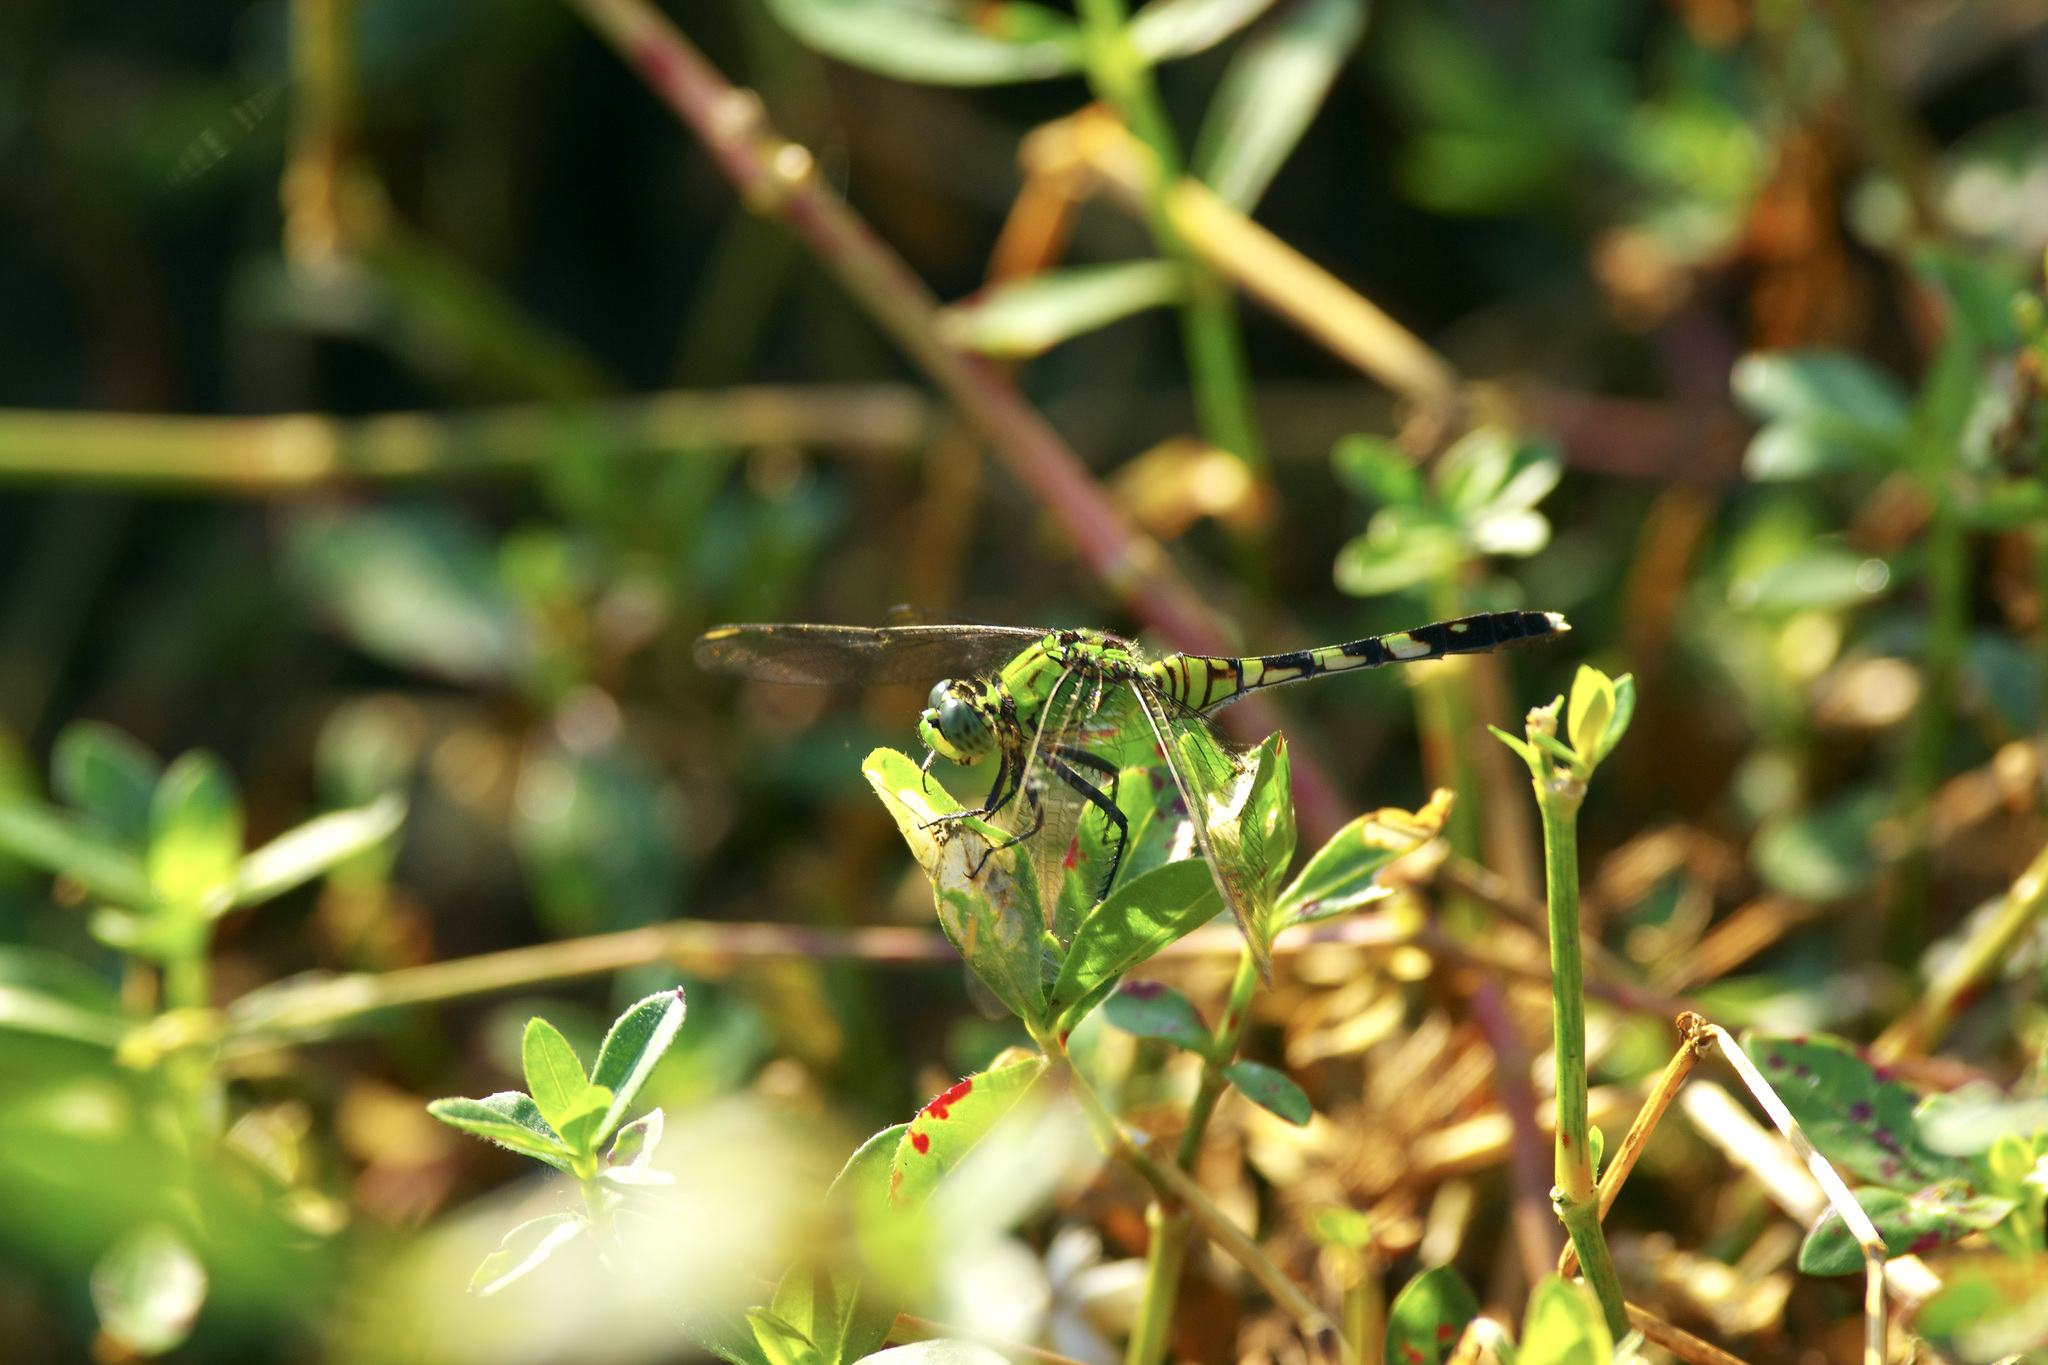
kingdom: Animalia
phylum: Arthropoda
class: Insecta
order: Odonata
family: Libellulidae
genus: Erythemis
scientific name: Erythemis simplicicollis
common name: Eastern pondhawk
